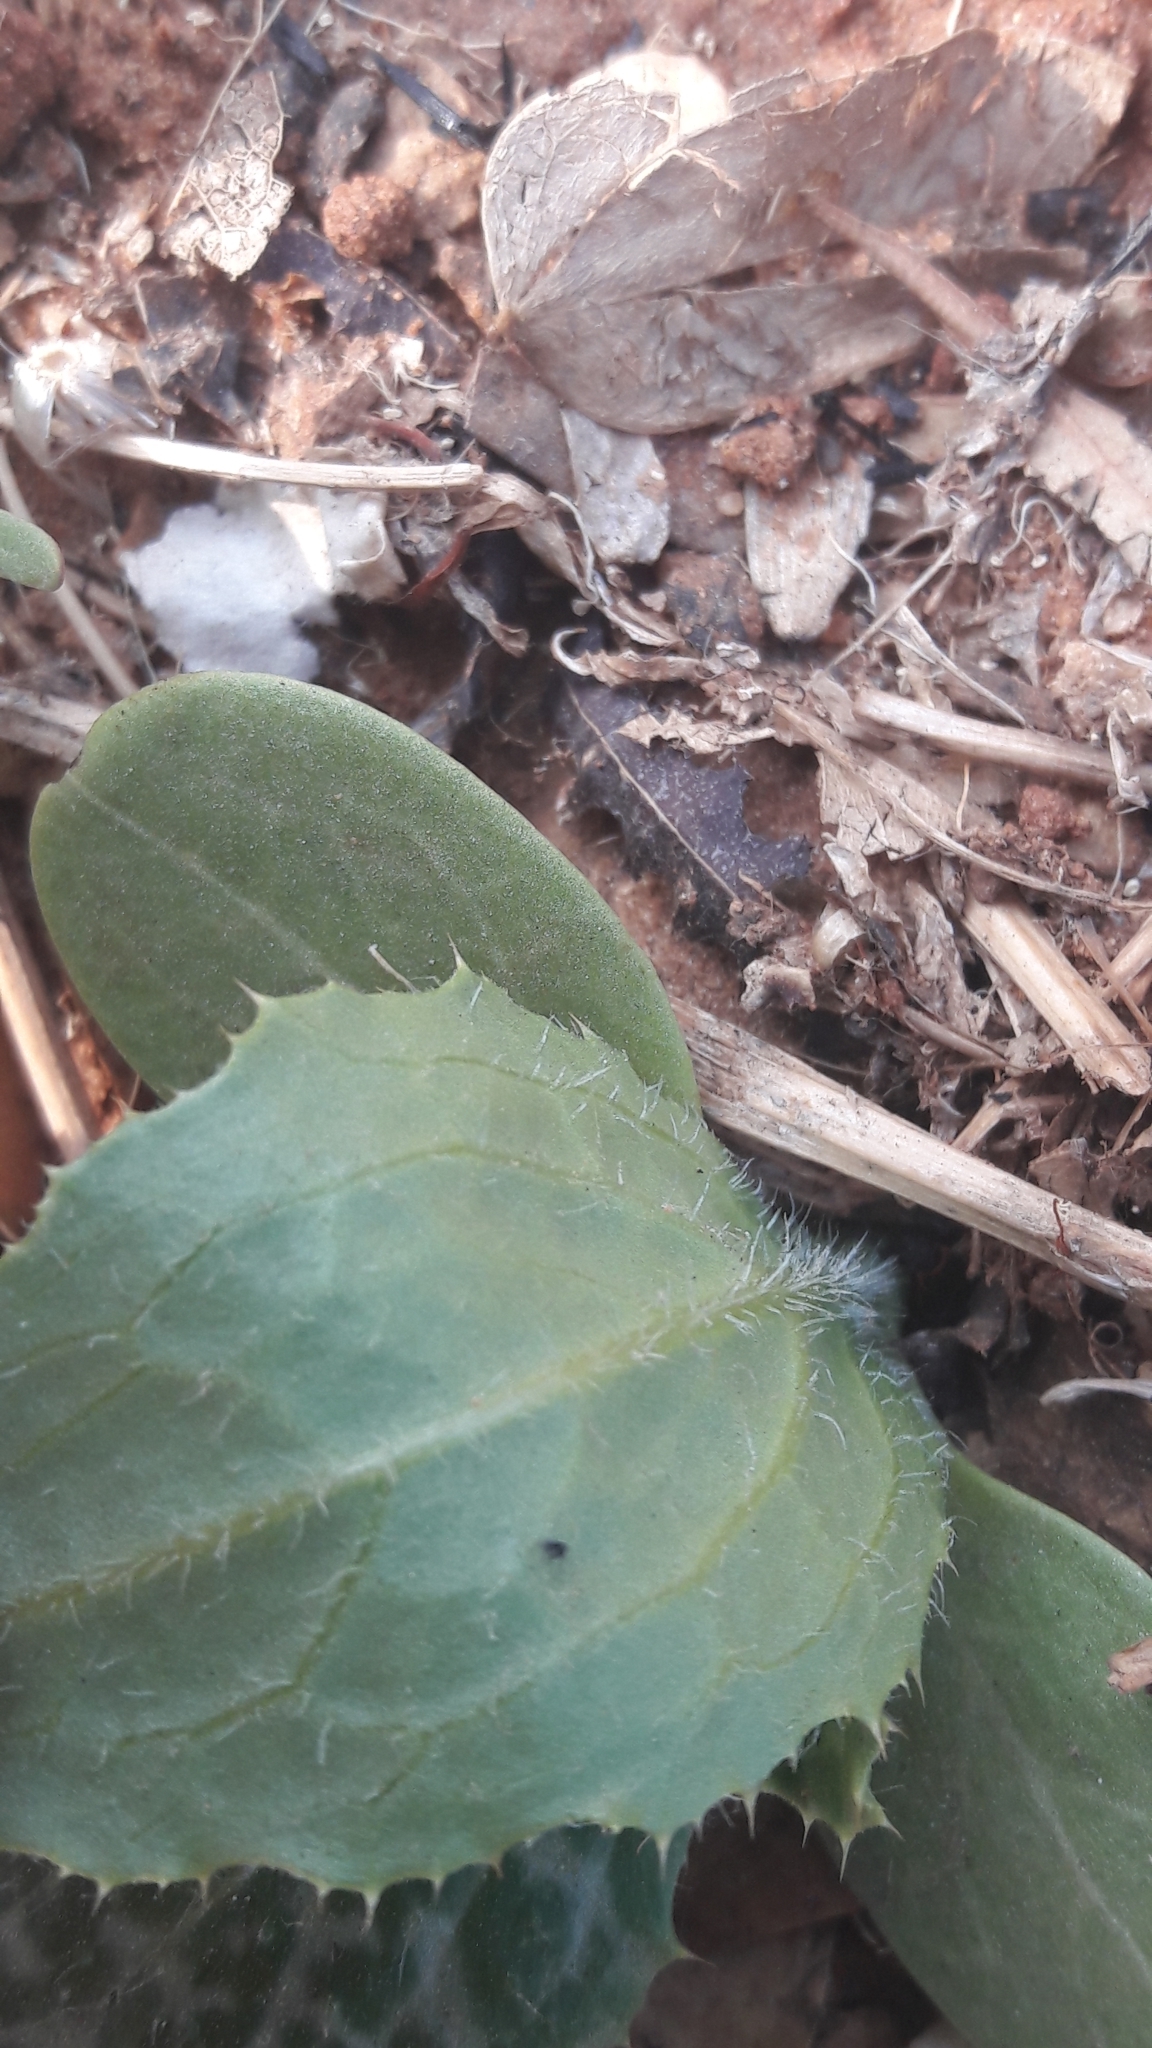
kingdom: Plantae
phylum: Tracheophyta
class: Magnoliopsida
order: Asterales
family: Asteraceae
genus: Silybum
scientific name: Silybum marianum
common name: Milk thistle
